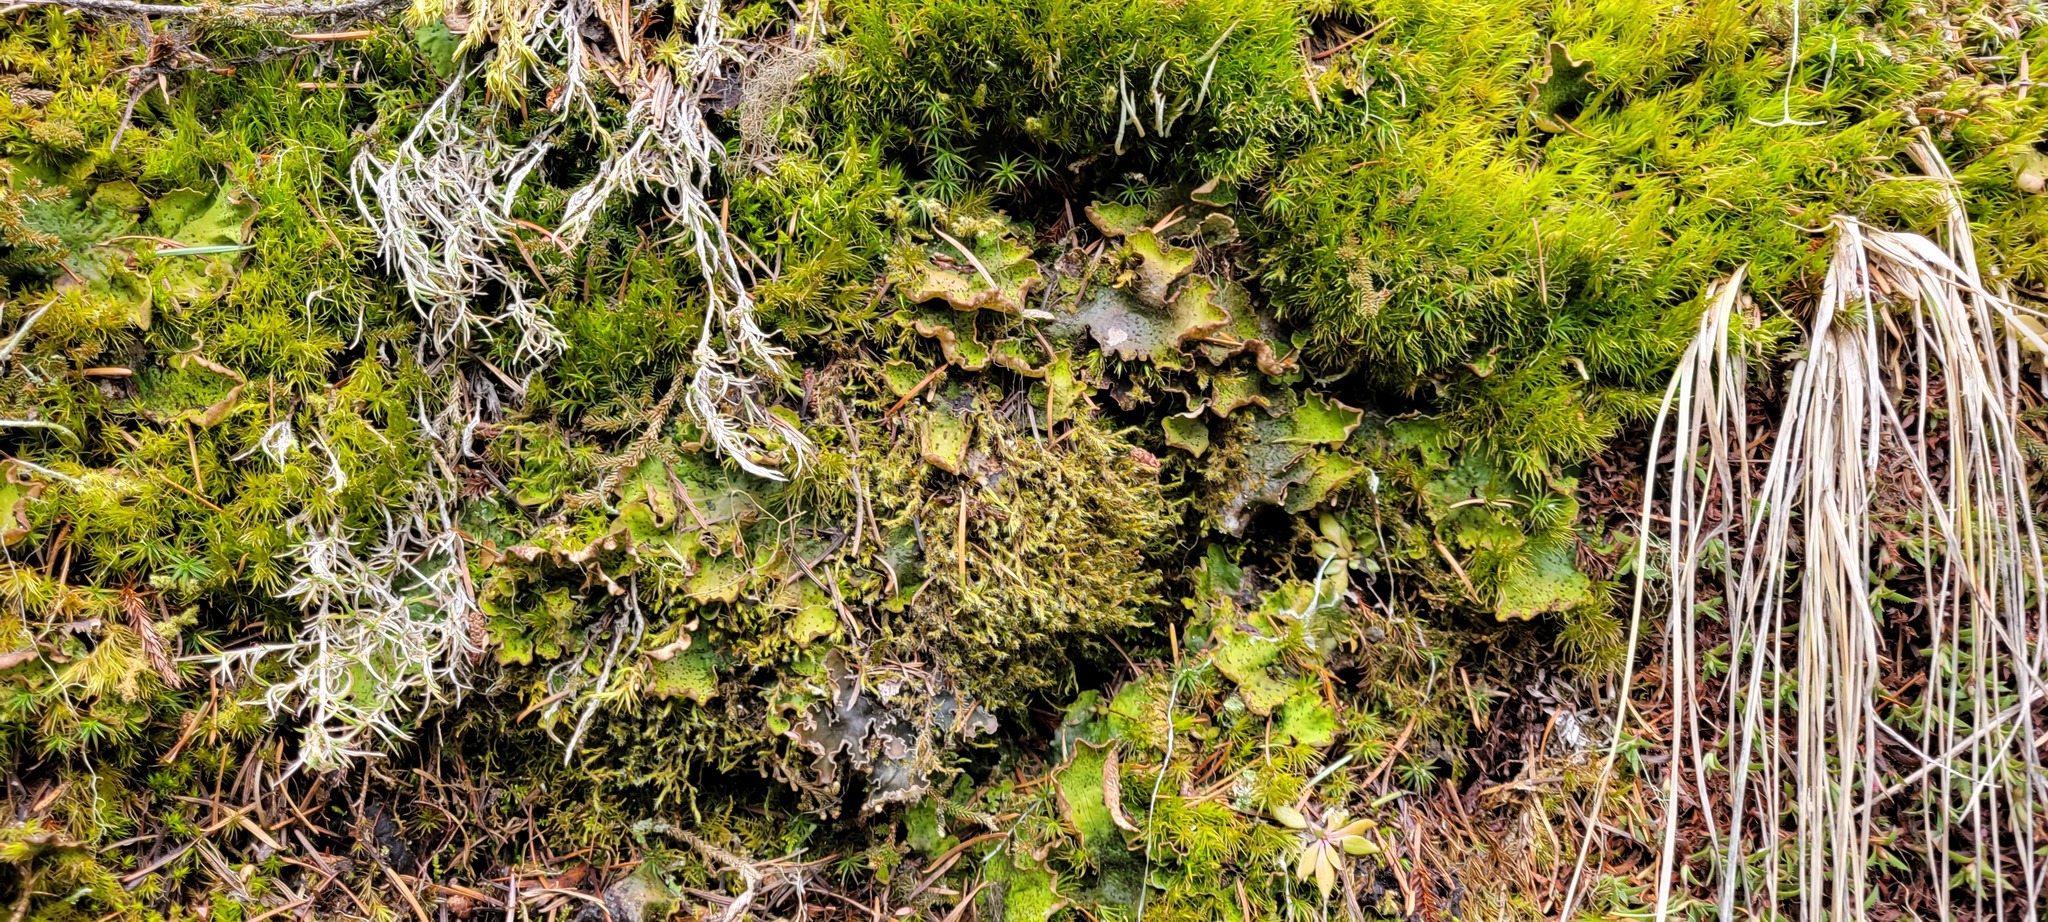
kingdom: Fungi
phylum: Ascomycota
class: Lecanoromycetes
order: Peltigerales
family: Peltigeraceae
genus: Peltigera
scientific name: Peltigera aphthosa
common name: Common freckle pelt lichen
